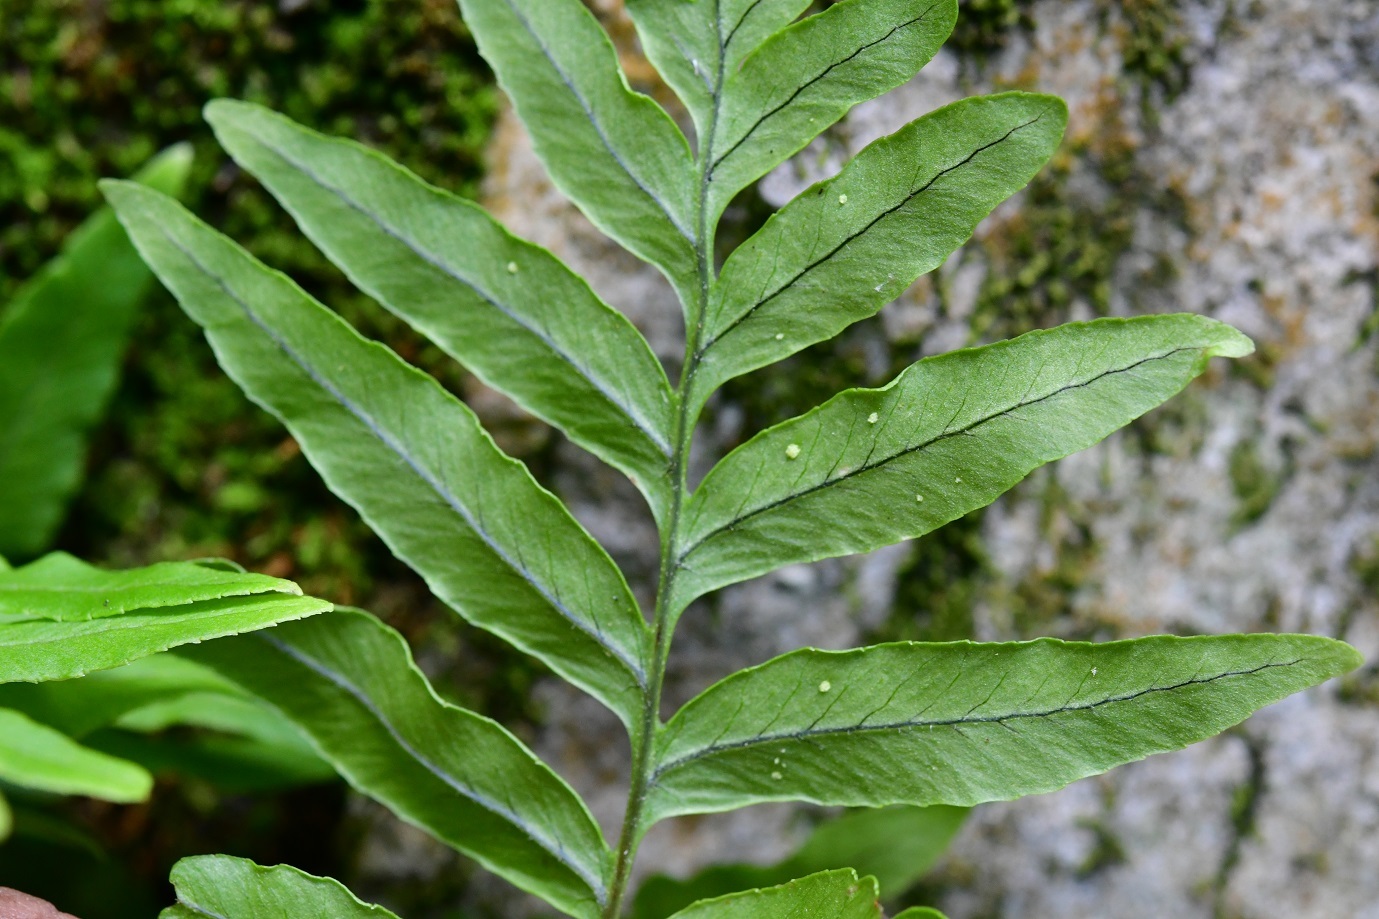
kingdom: Plantae
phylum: Tracheophyta
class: Polypodiopsida
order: Polypodiales
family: Polypodiaceae
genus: Pleopeltis
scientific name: Pleopeltis plebeia
